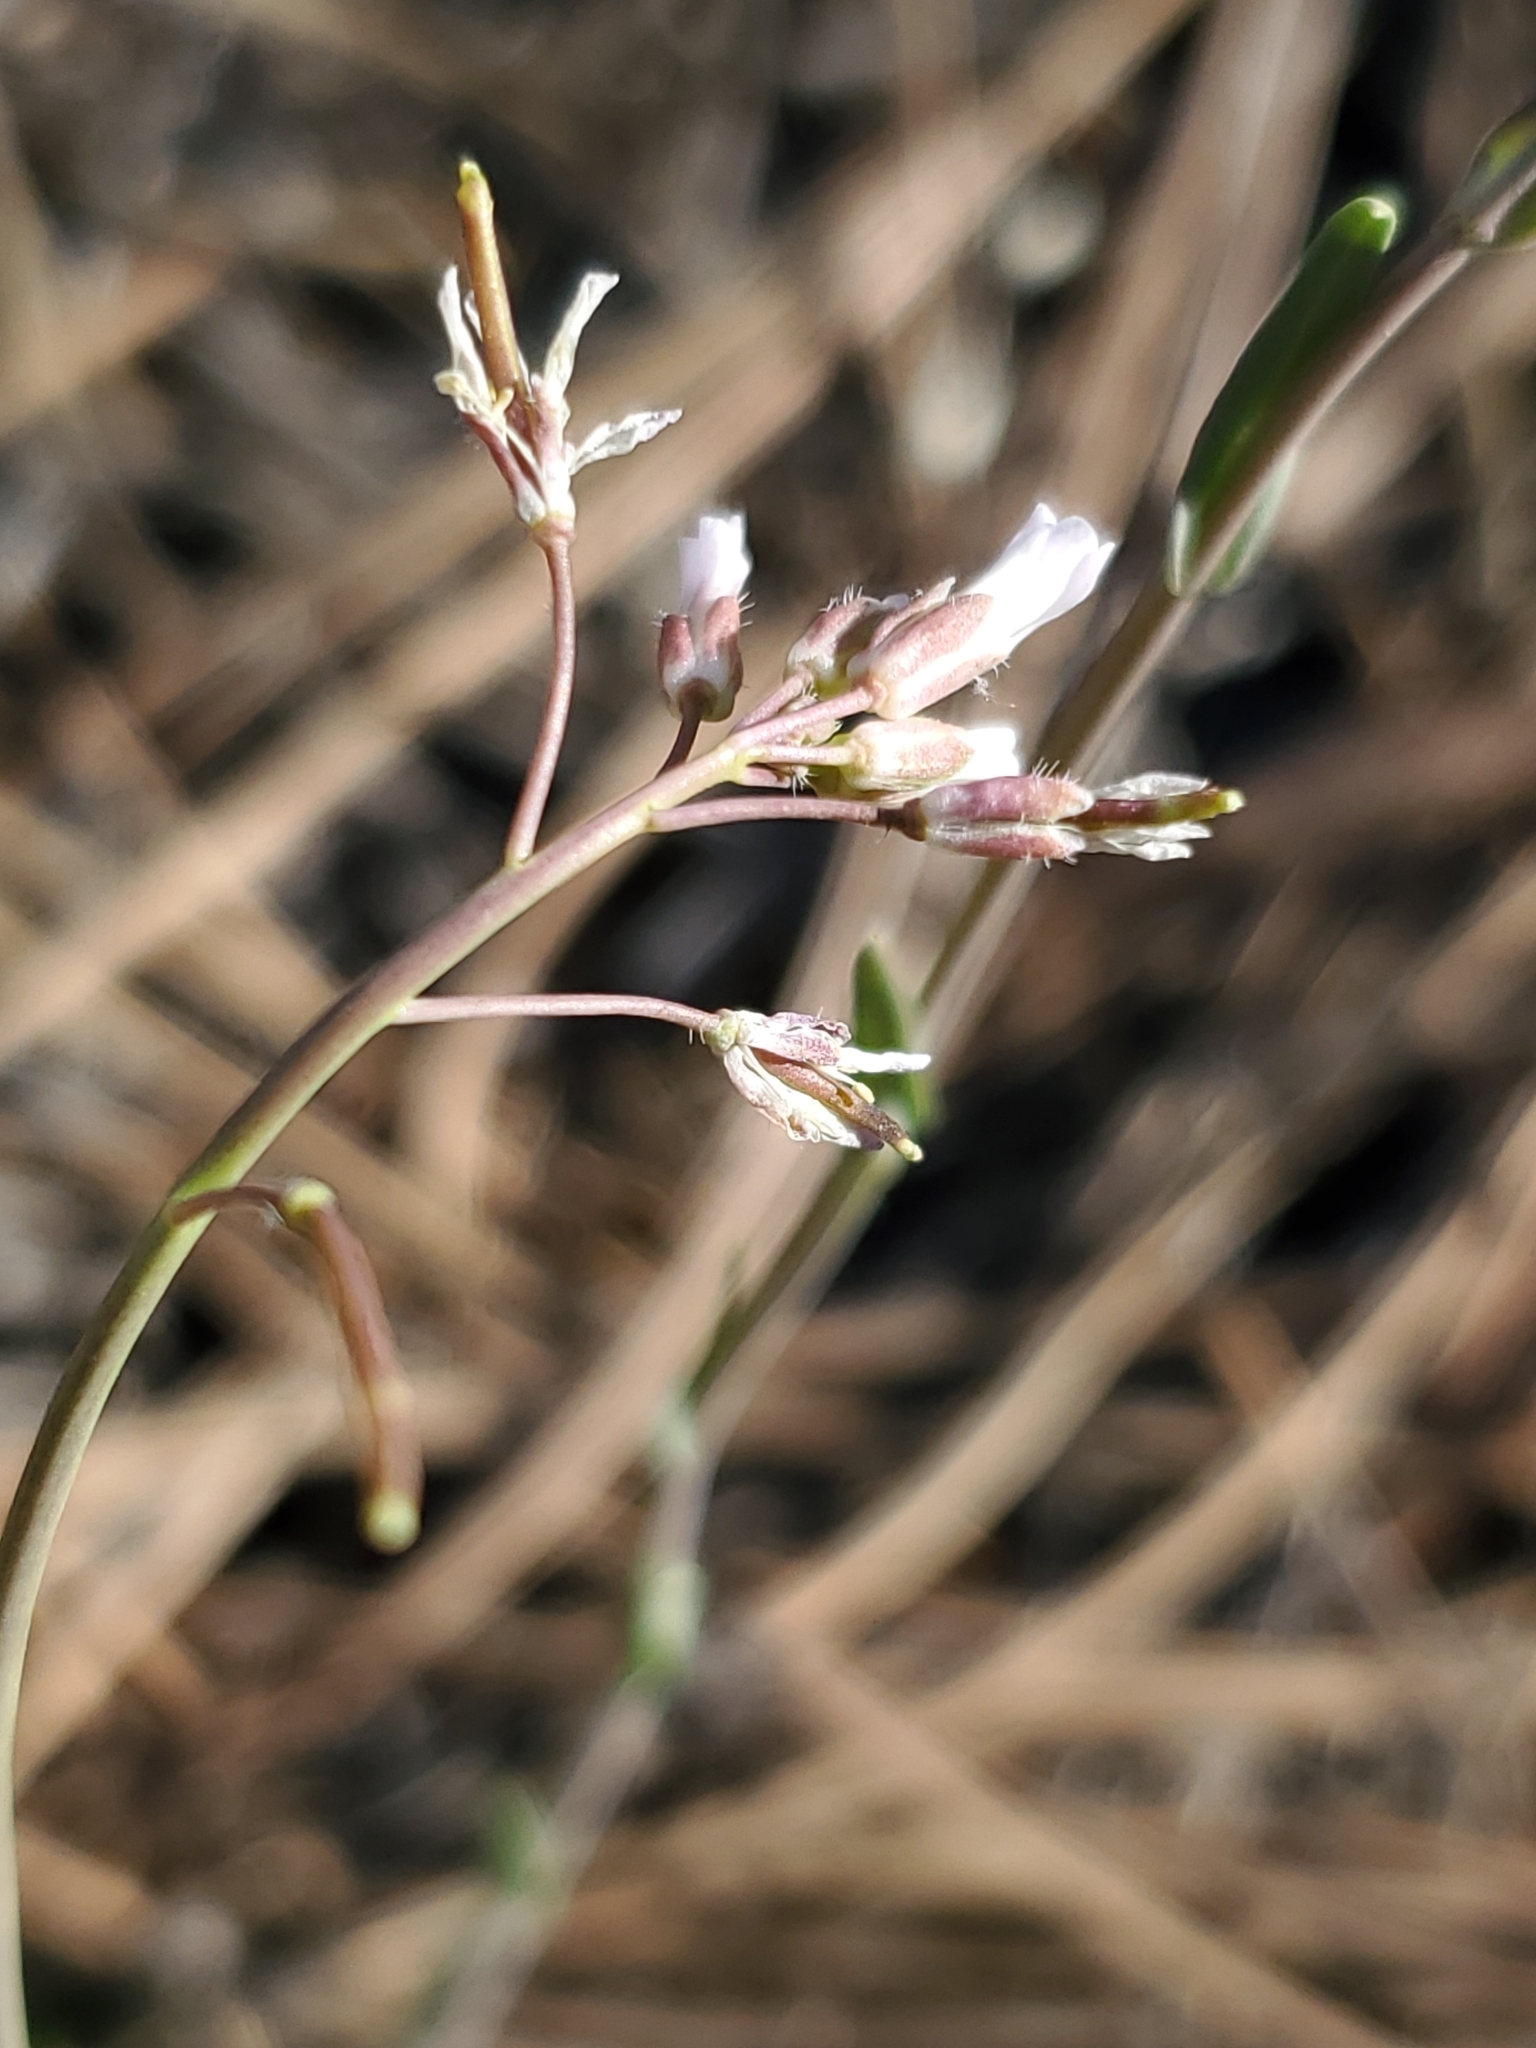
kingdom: Plantae
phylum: Tracheophyta
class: Magnoliopsida
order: Brassicales
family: Brassicaceae
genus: Boechera
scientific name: Boechera fendleri
